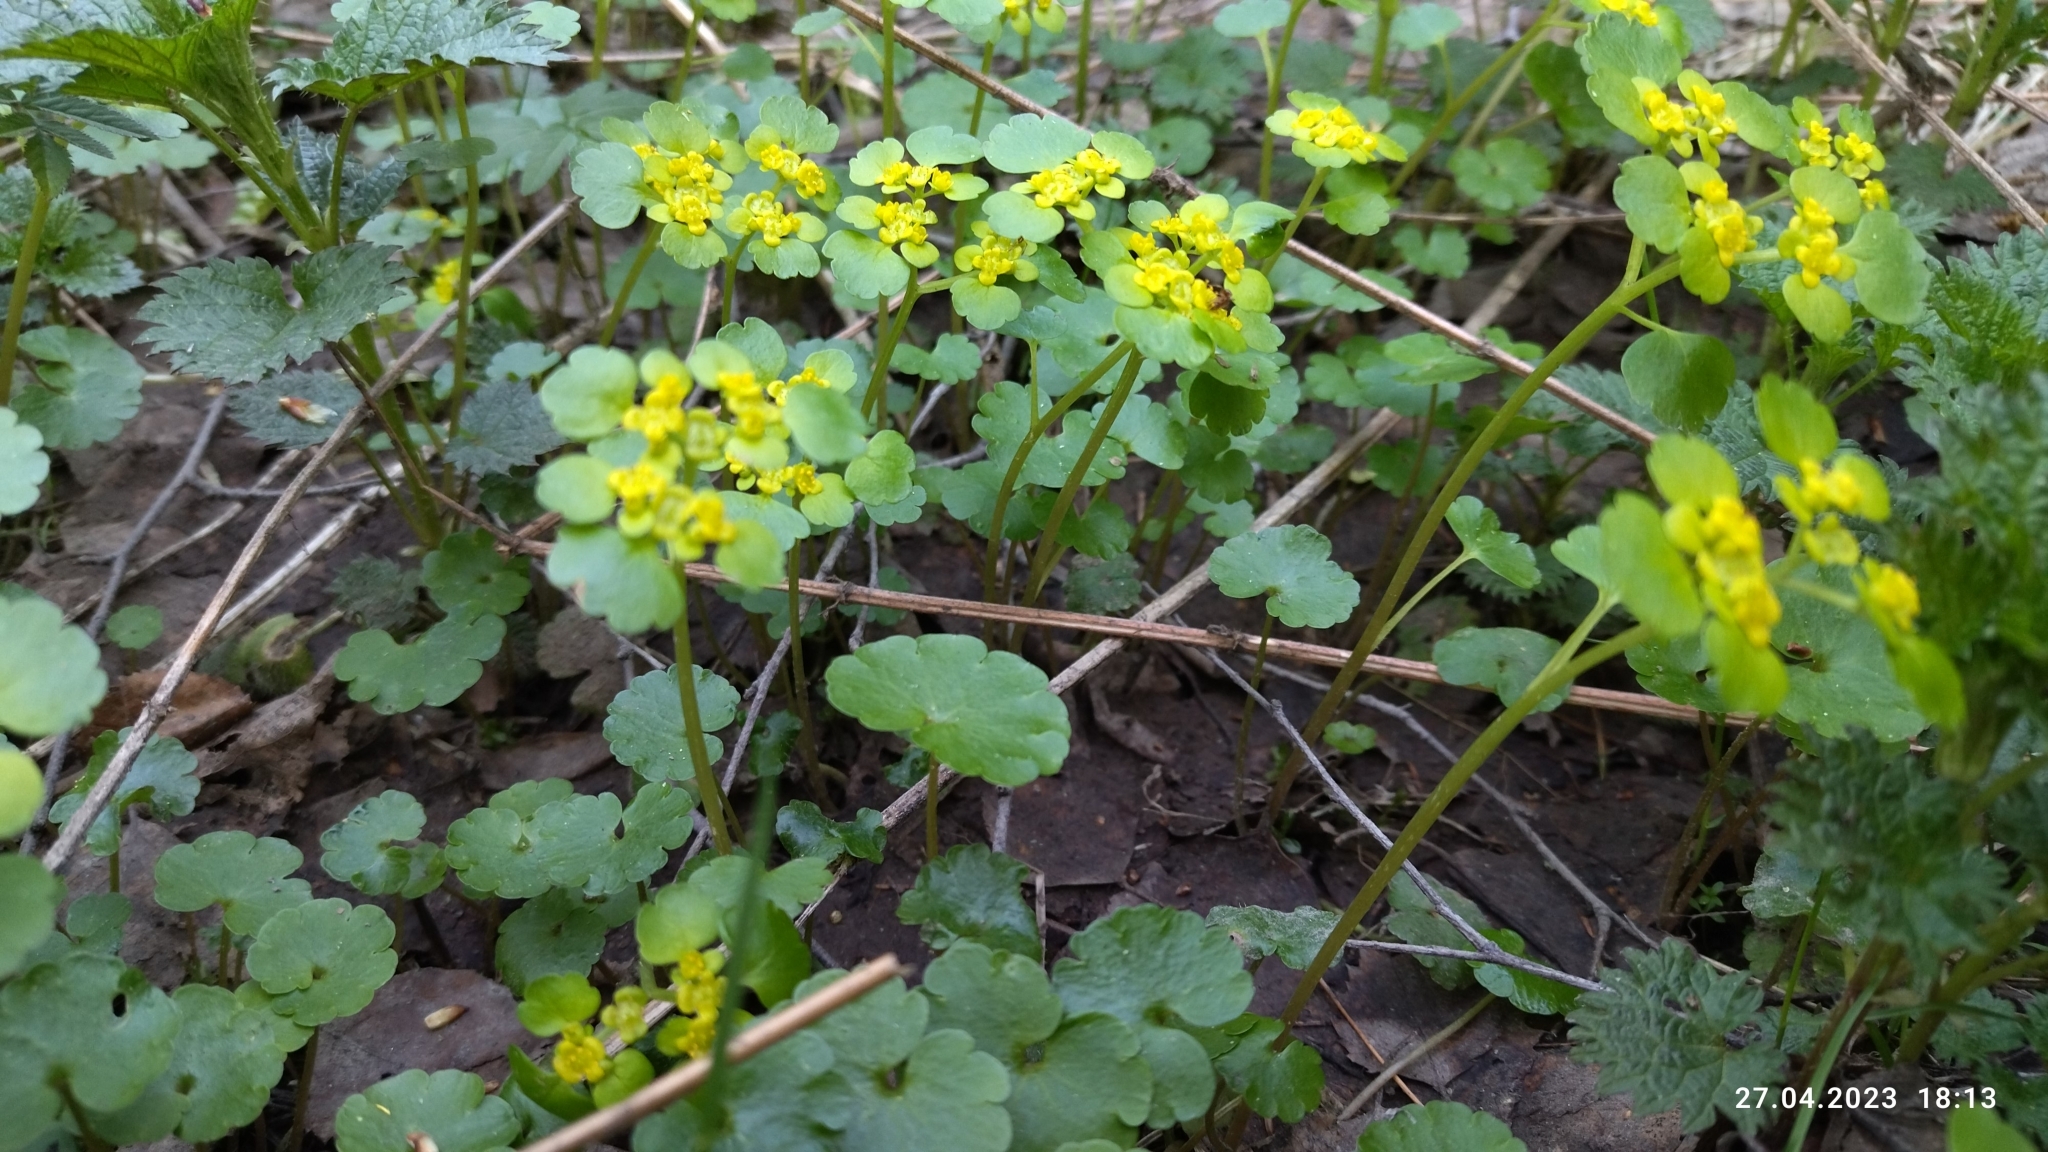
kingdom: Plantae
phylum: Tracheophyta
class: Magnoliopsida
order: Saxifragales
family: Saxifragaceae
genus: Chrysosplenium
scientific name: Chrysosplenium alternifolium
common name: Alternate-leaved golden-saxifrage
